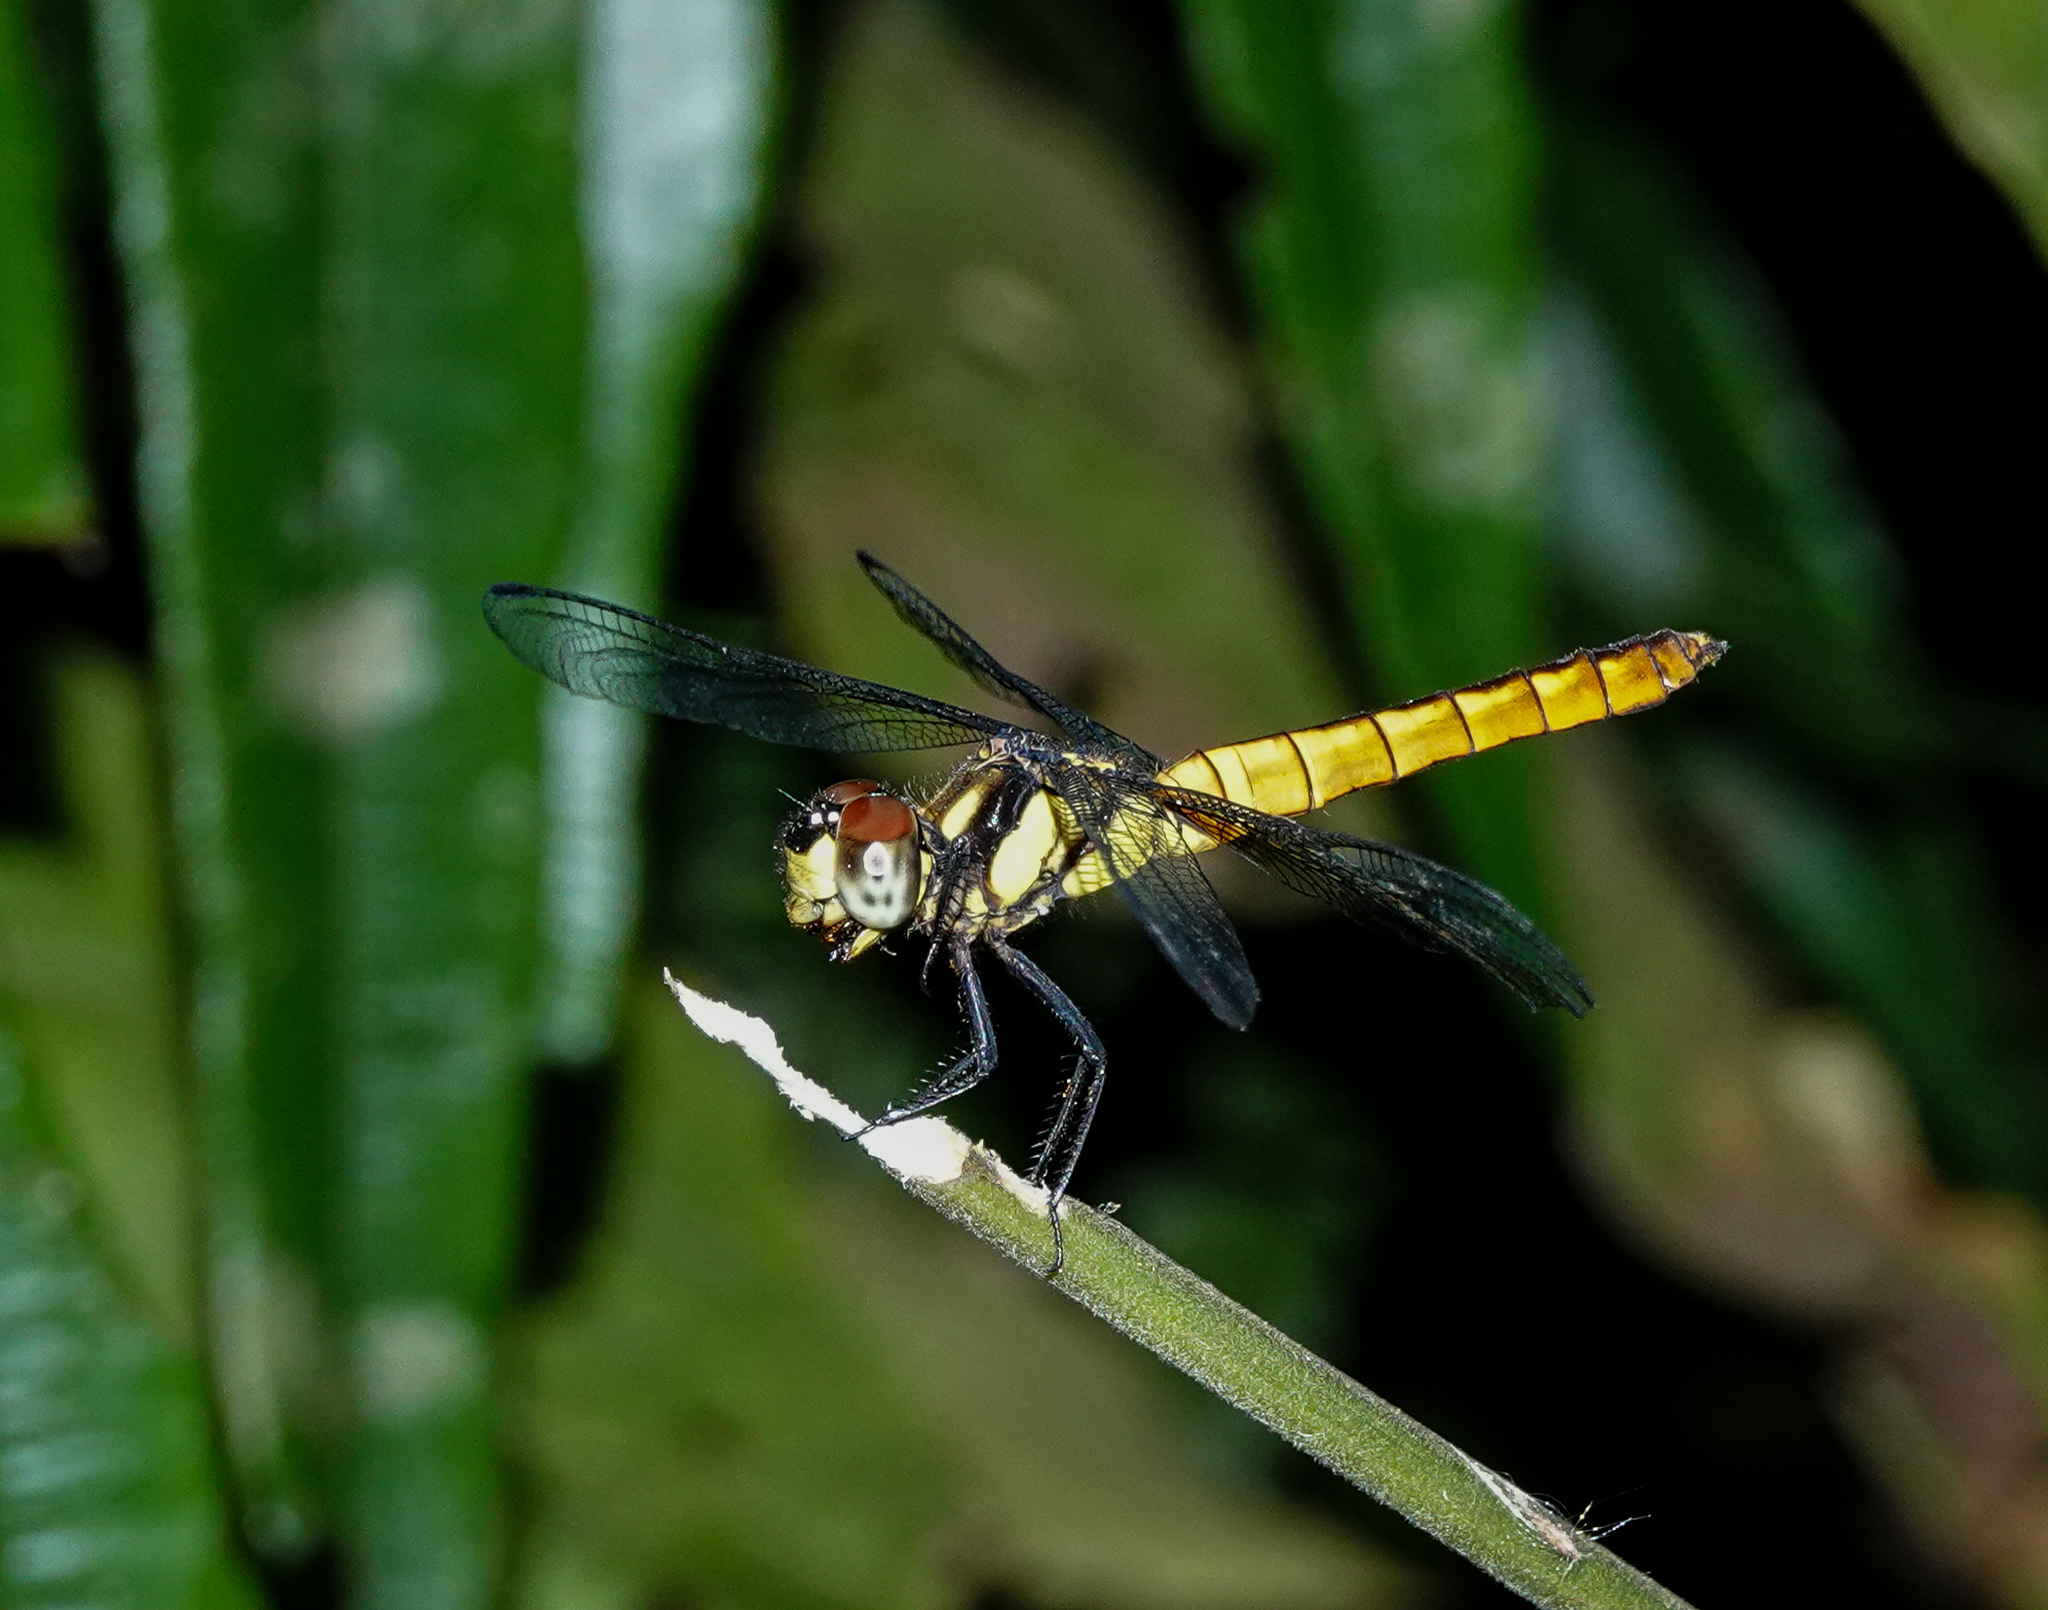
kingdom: Animalia
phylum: Arthropoda
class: Insecta
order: Odonata
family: Libellulidae
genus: Lyriothemis
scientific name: Lyriothemis tricolor
